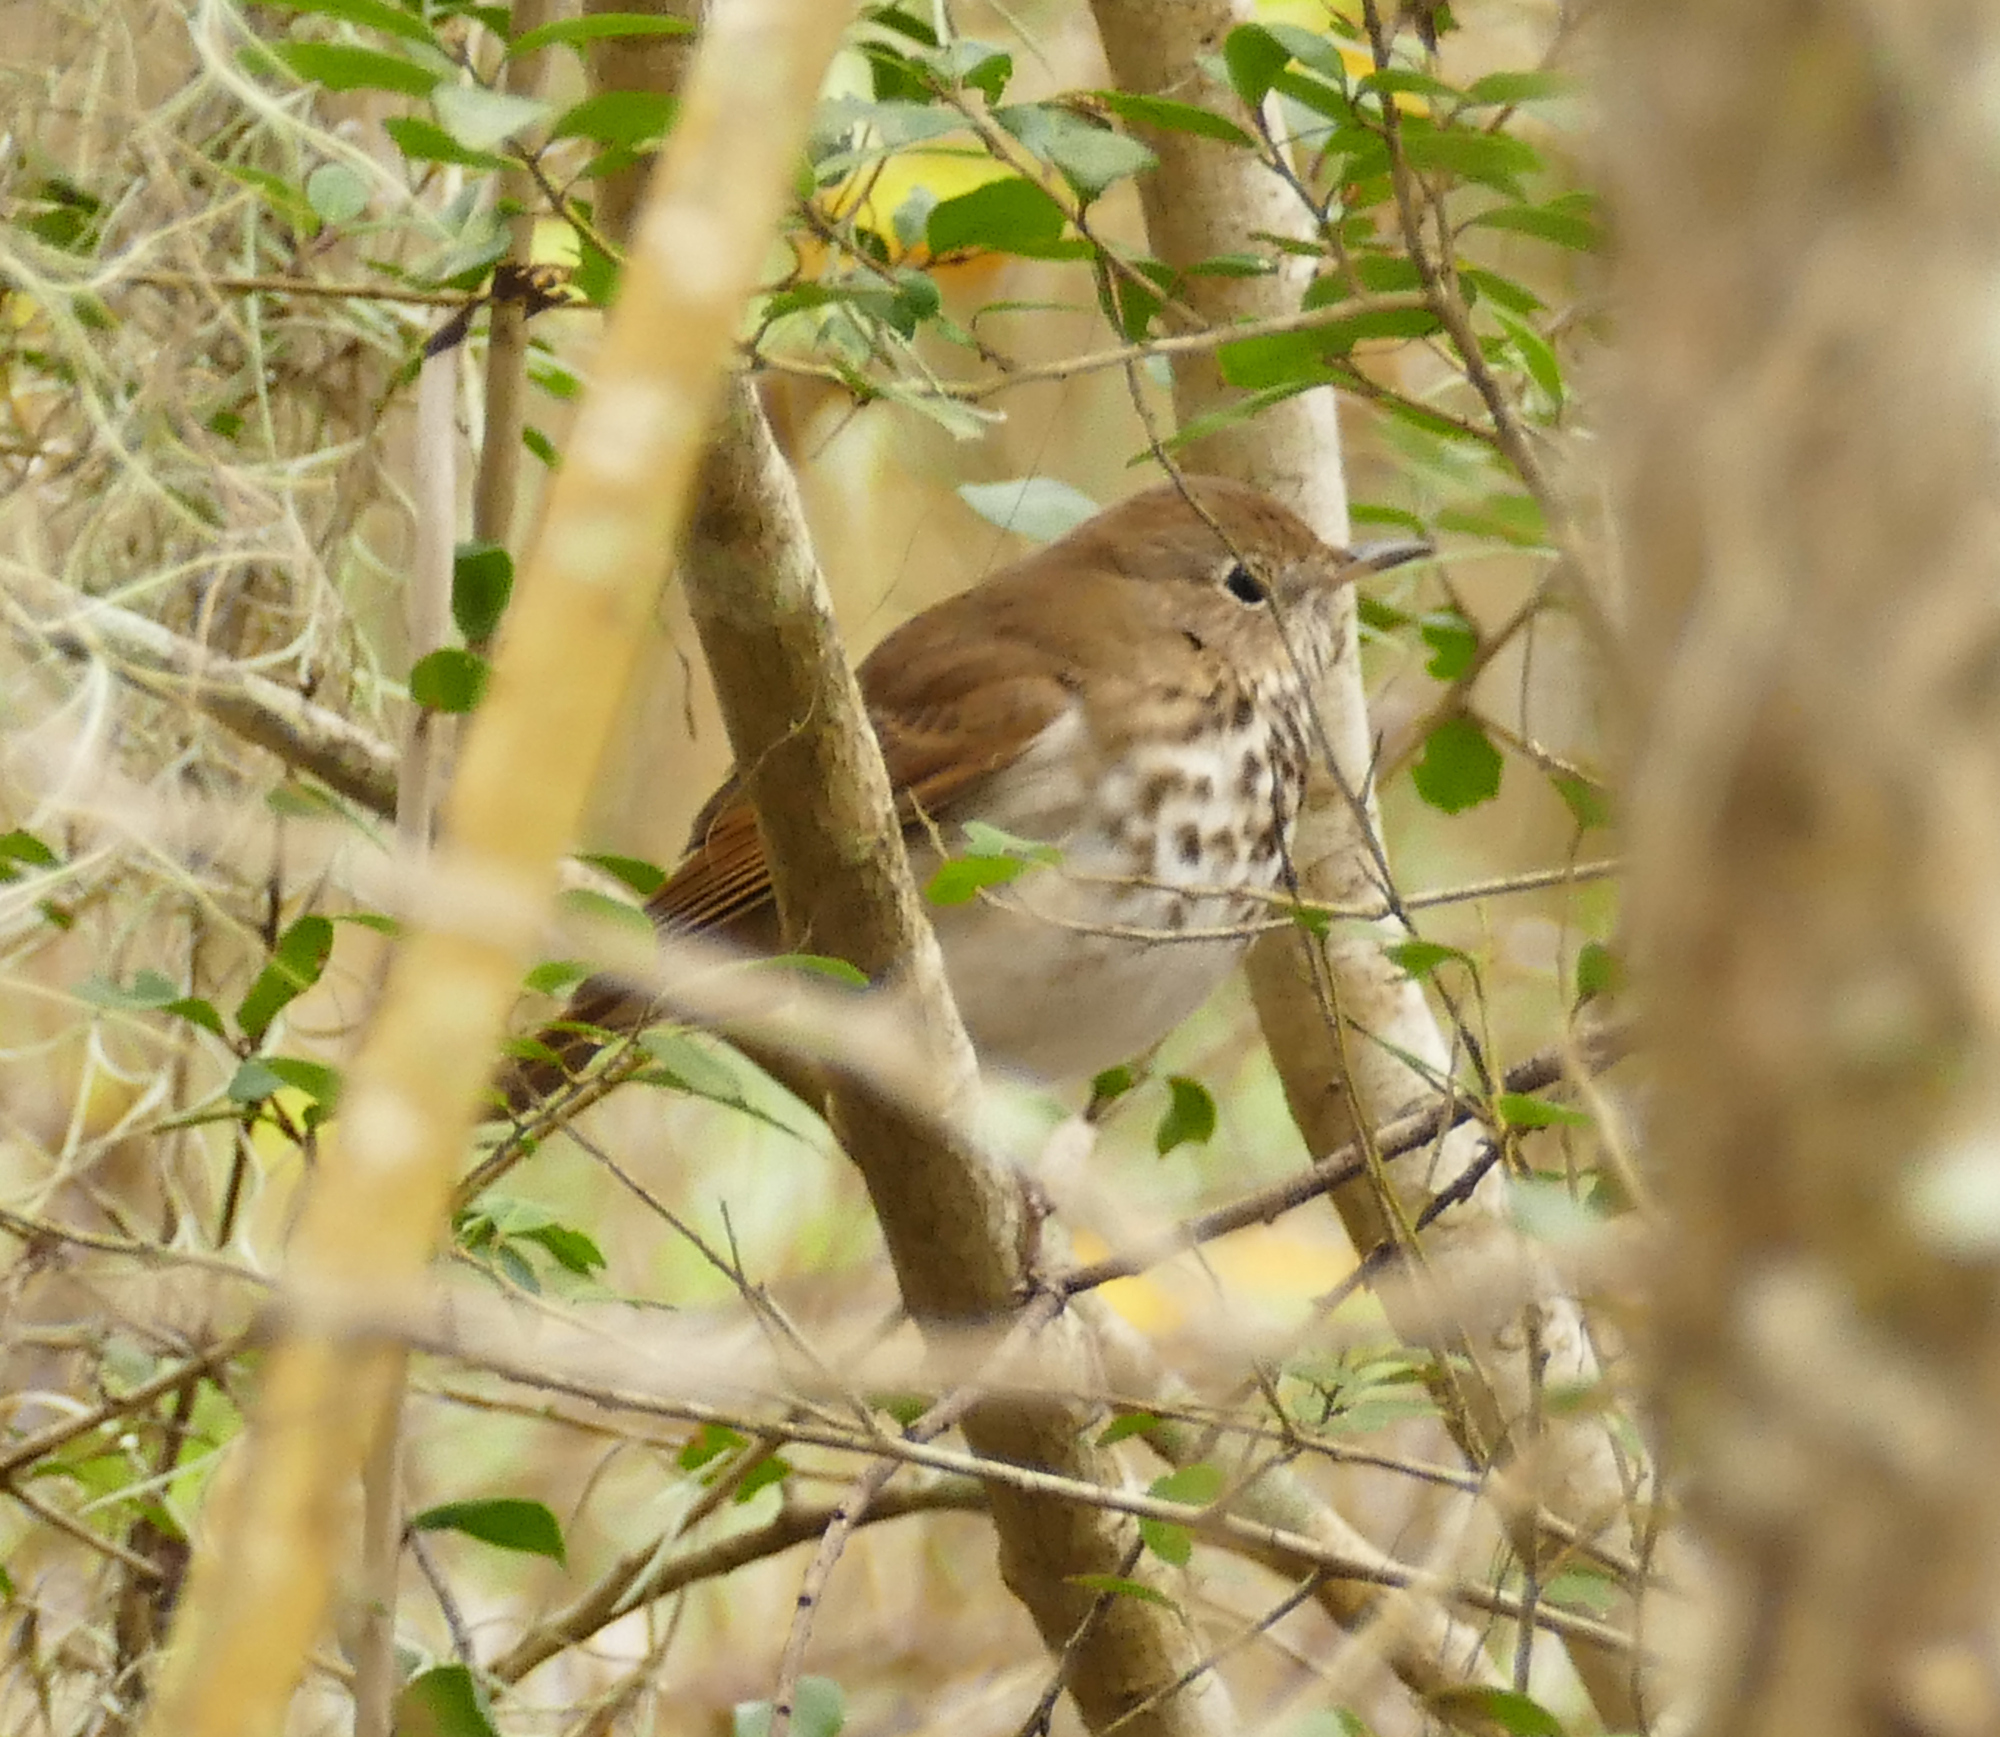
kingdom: Animalia
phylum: Chordata
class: Aves
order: Passeriformes
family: Turdidae
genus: Catharus
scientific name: Catharus guttatus
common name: Hermit thrush
